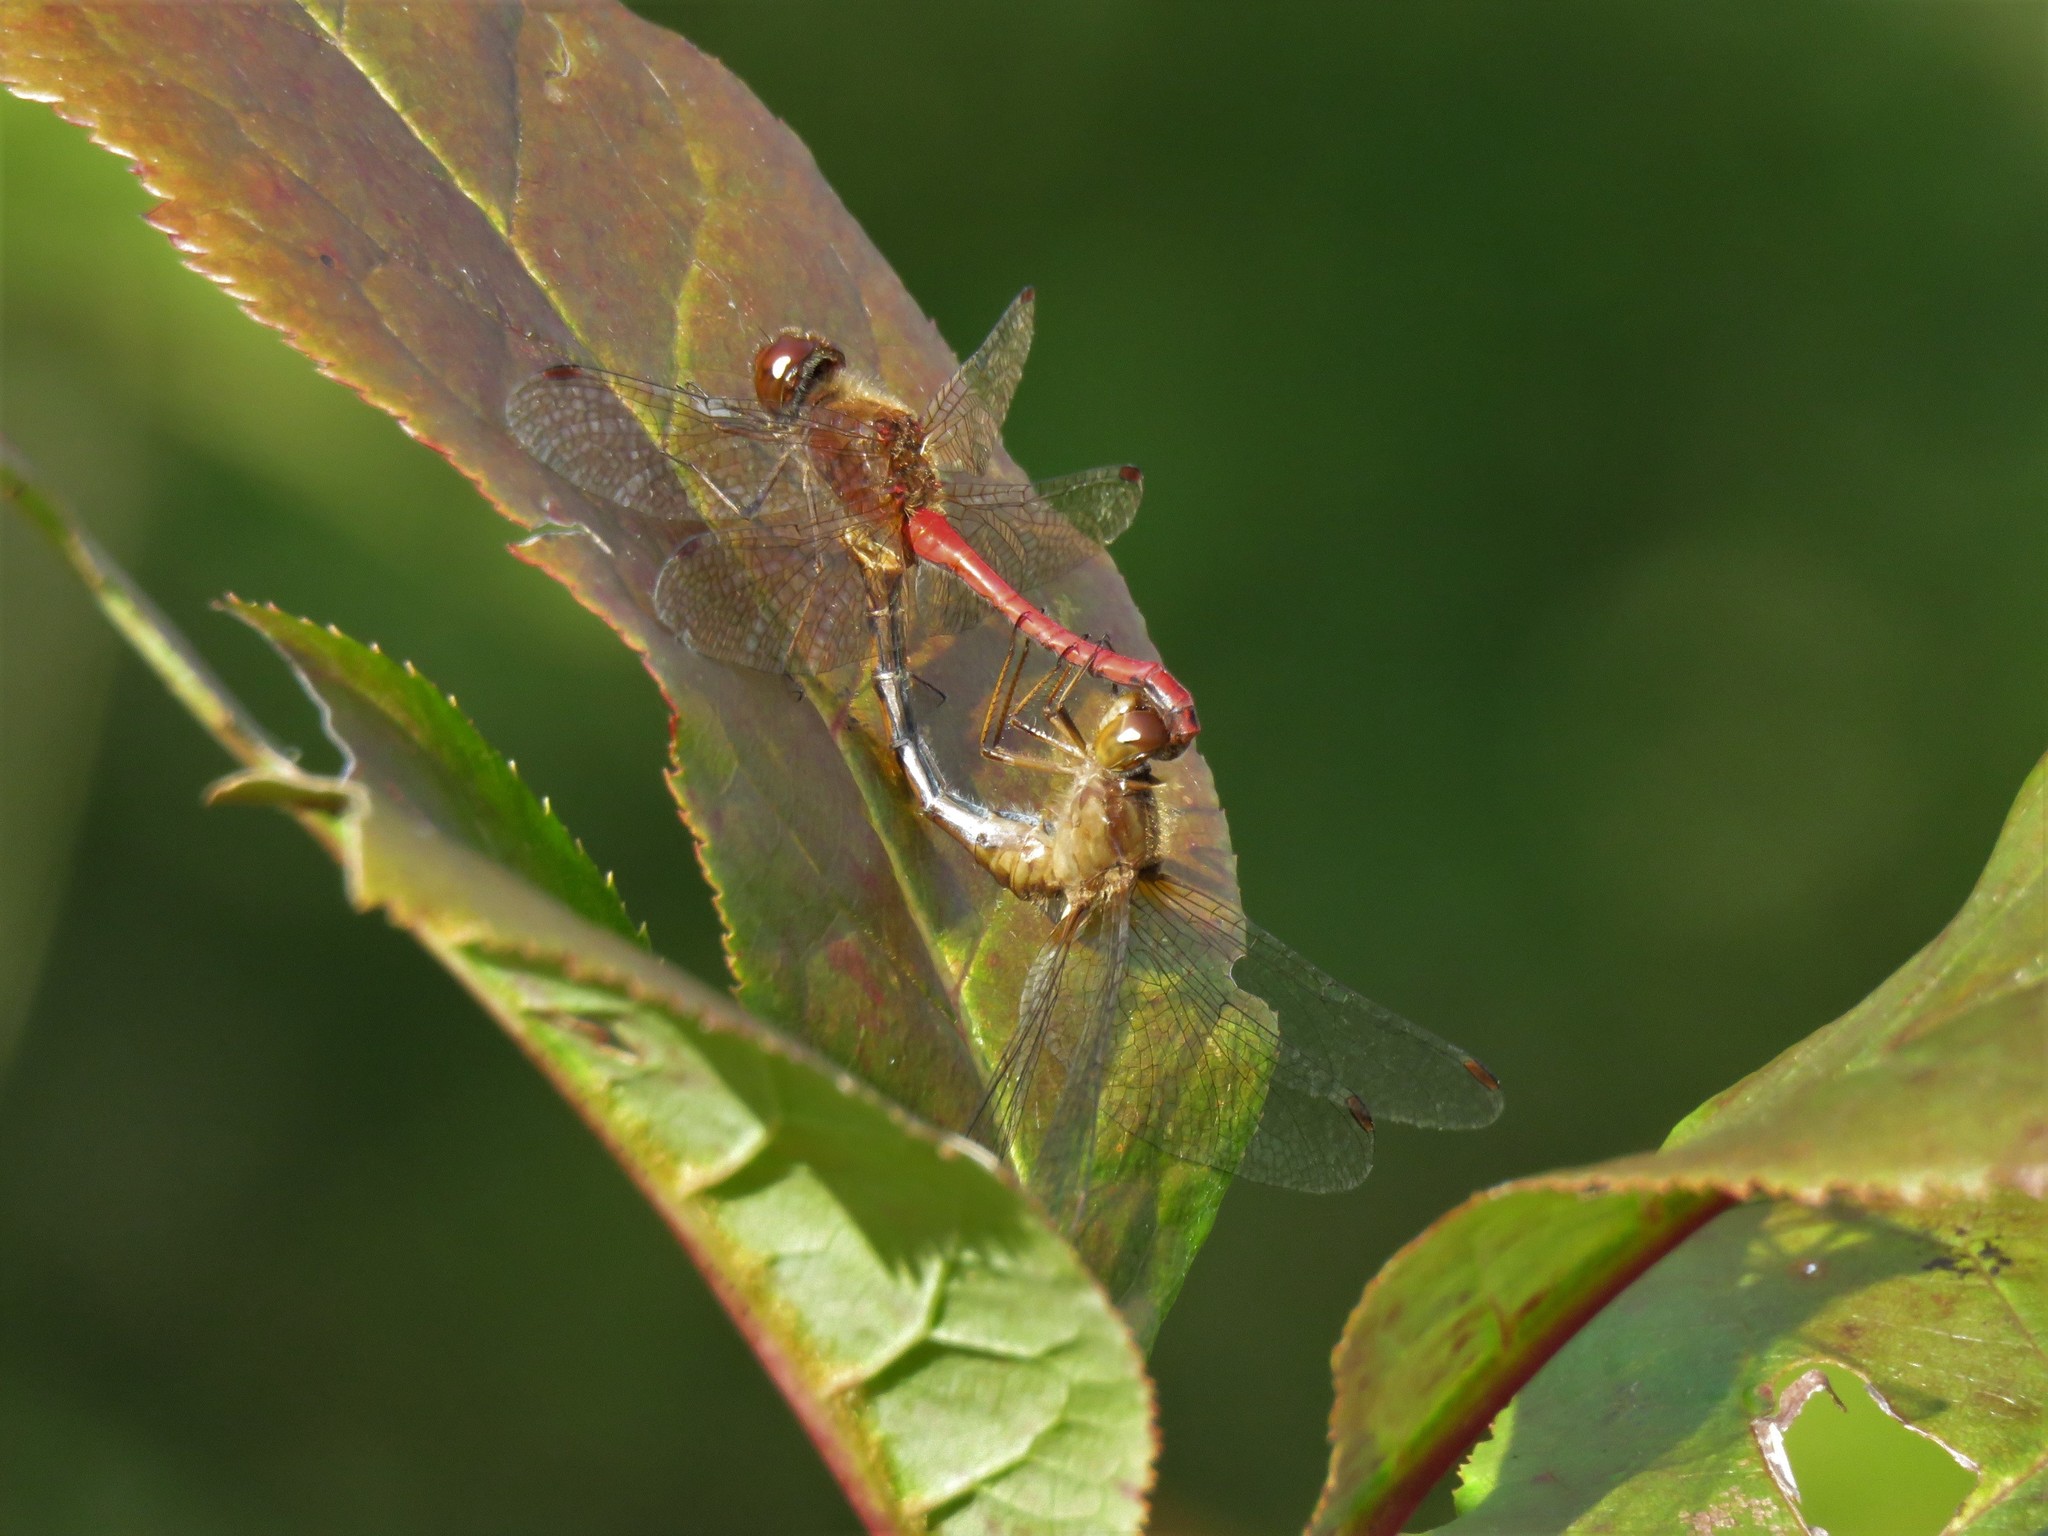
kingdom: Animalia
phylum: Arthropoda
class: Insecta
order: Odonata
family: Libellulidae
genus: Sympetrum
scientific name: Sympetrum vicinum
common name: Autumn meadowhawk
